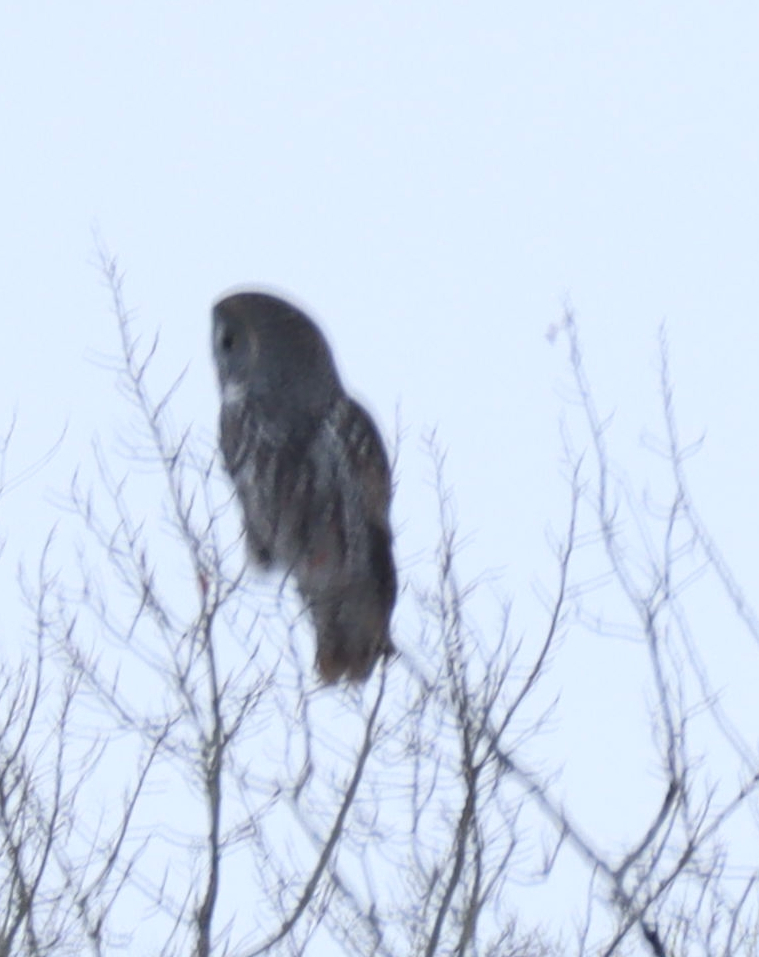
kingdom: Animalia
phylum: Chordata
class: Aves
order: Strigiformes
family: Strigidae
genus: Strix
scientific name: Strix nebulosa
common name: Great grey owl
